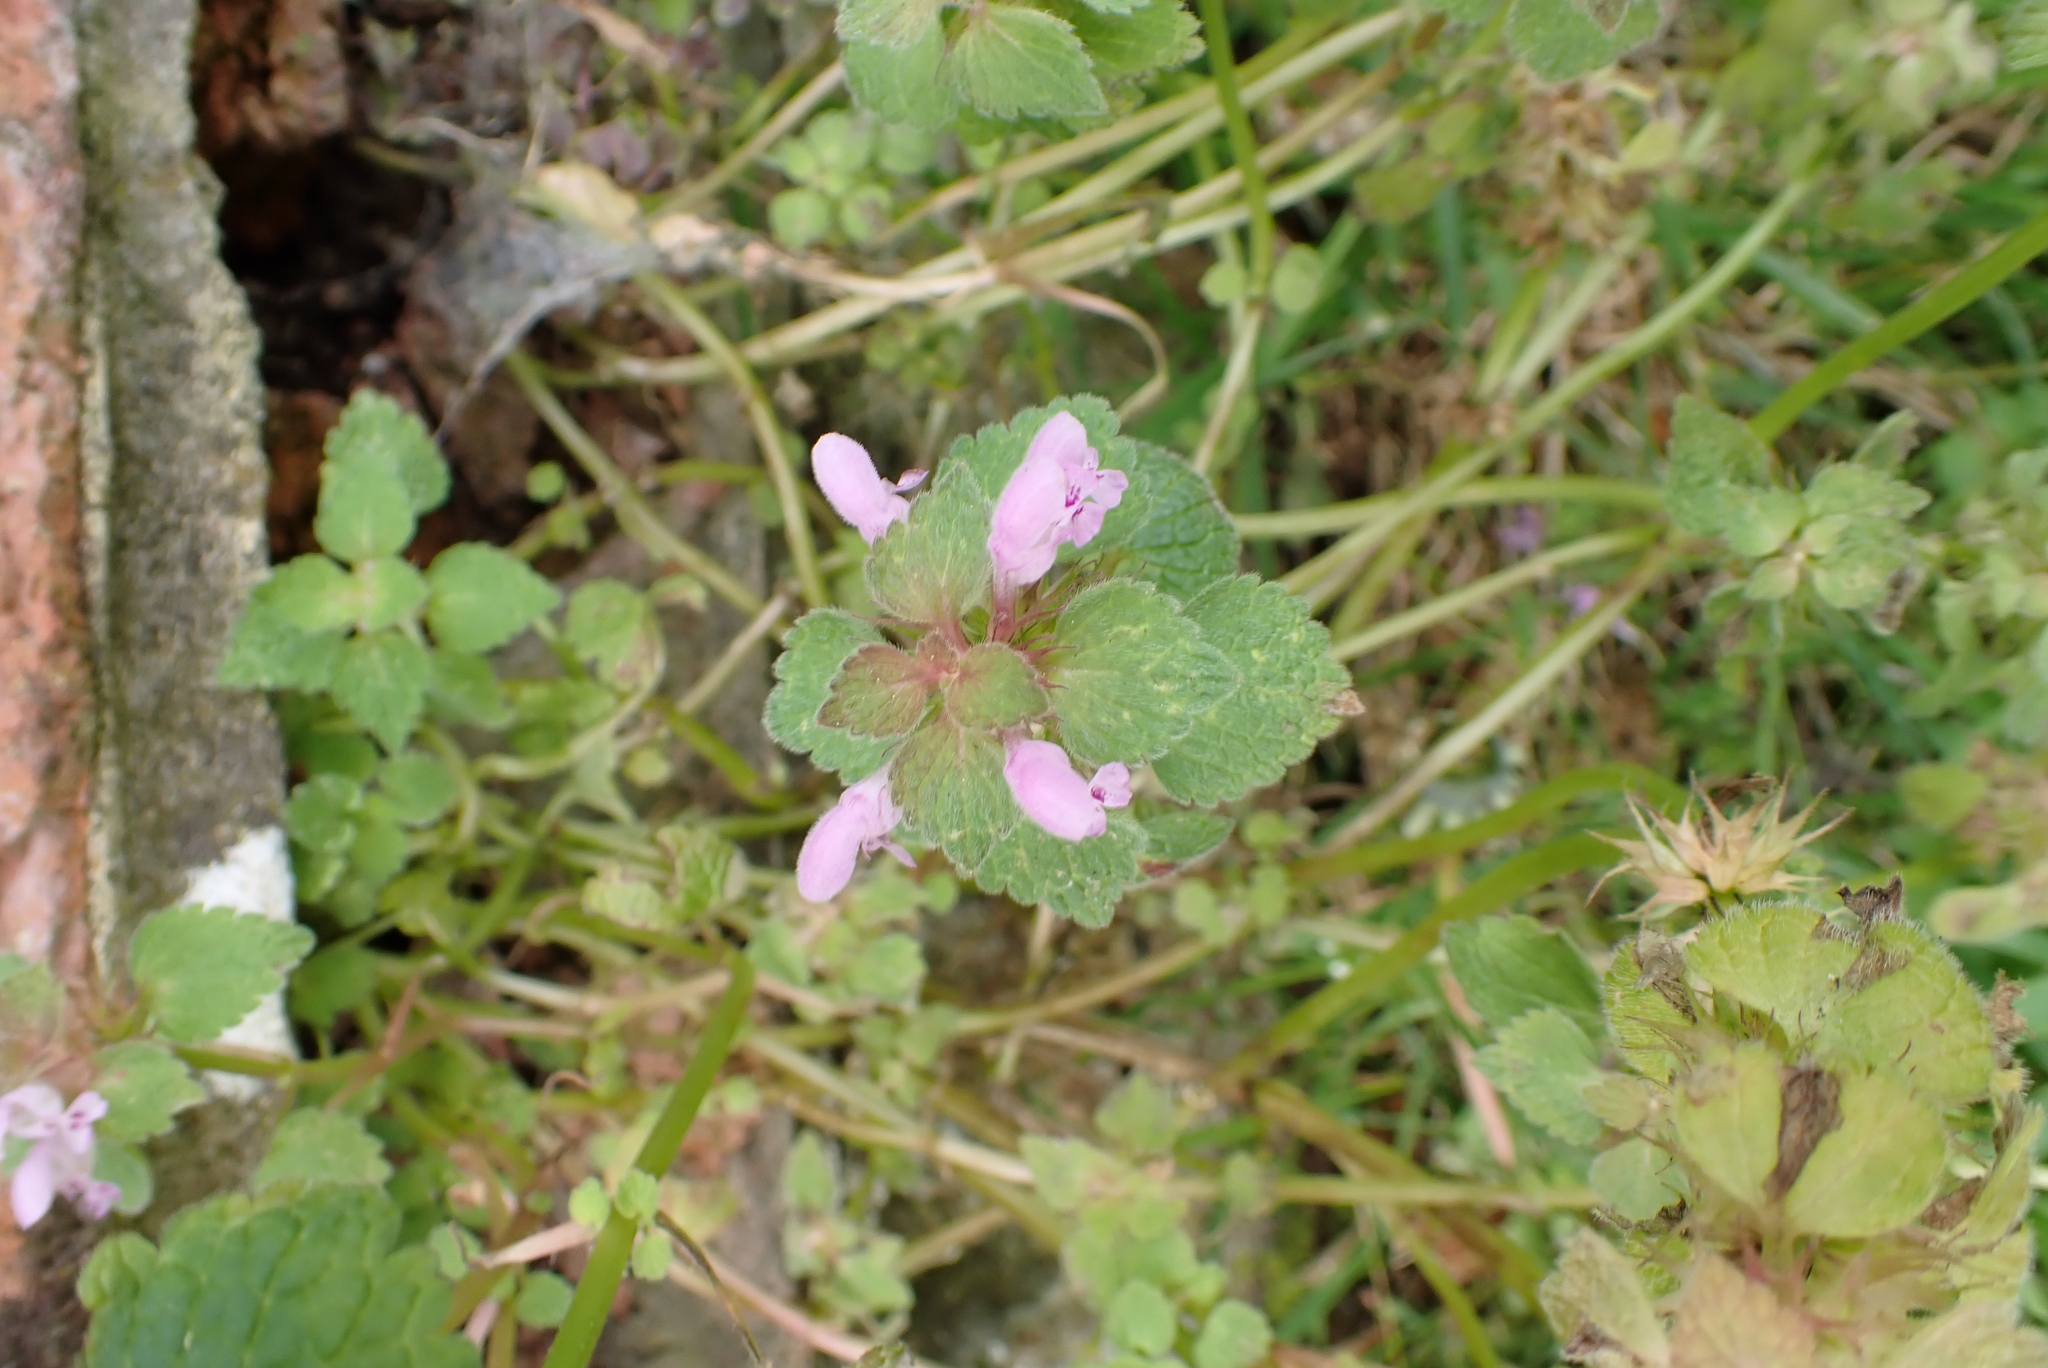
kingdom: Plantae
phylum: Tracheophyta
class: Magnoliopsida
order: Lamiales
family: Lamiaceae
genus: Lamium
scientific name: Lamium purpureum
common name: Red dead-nettle
